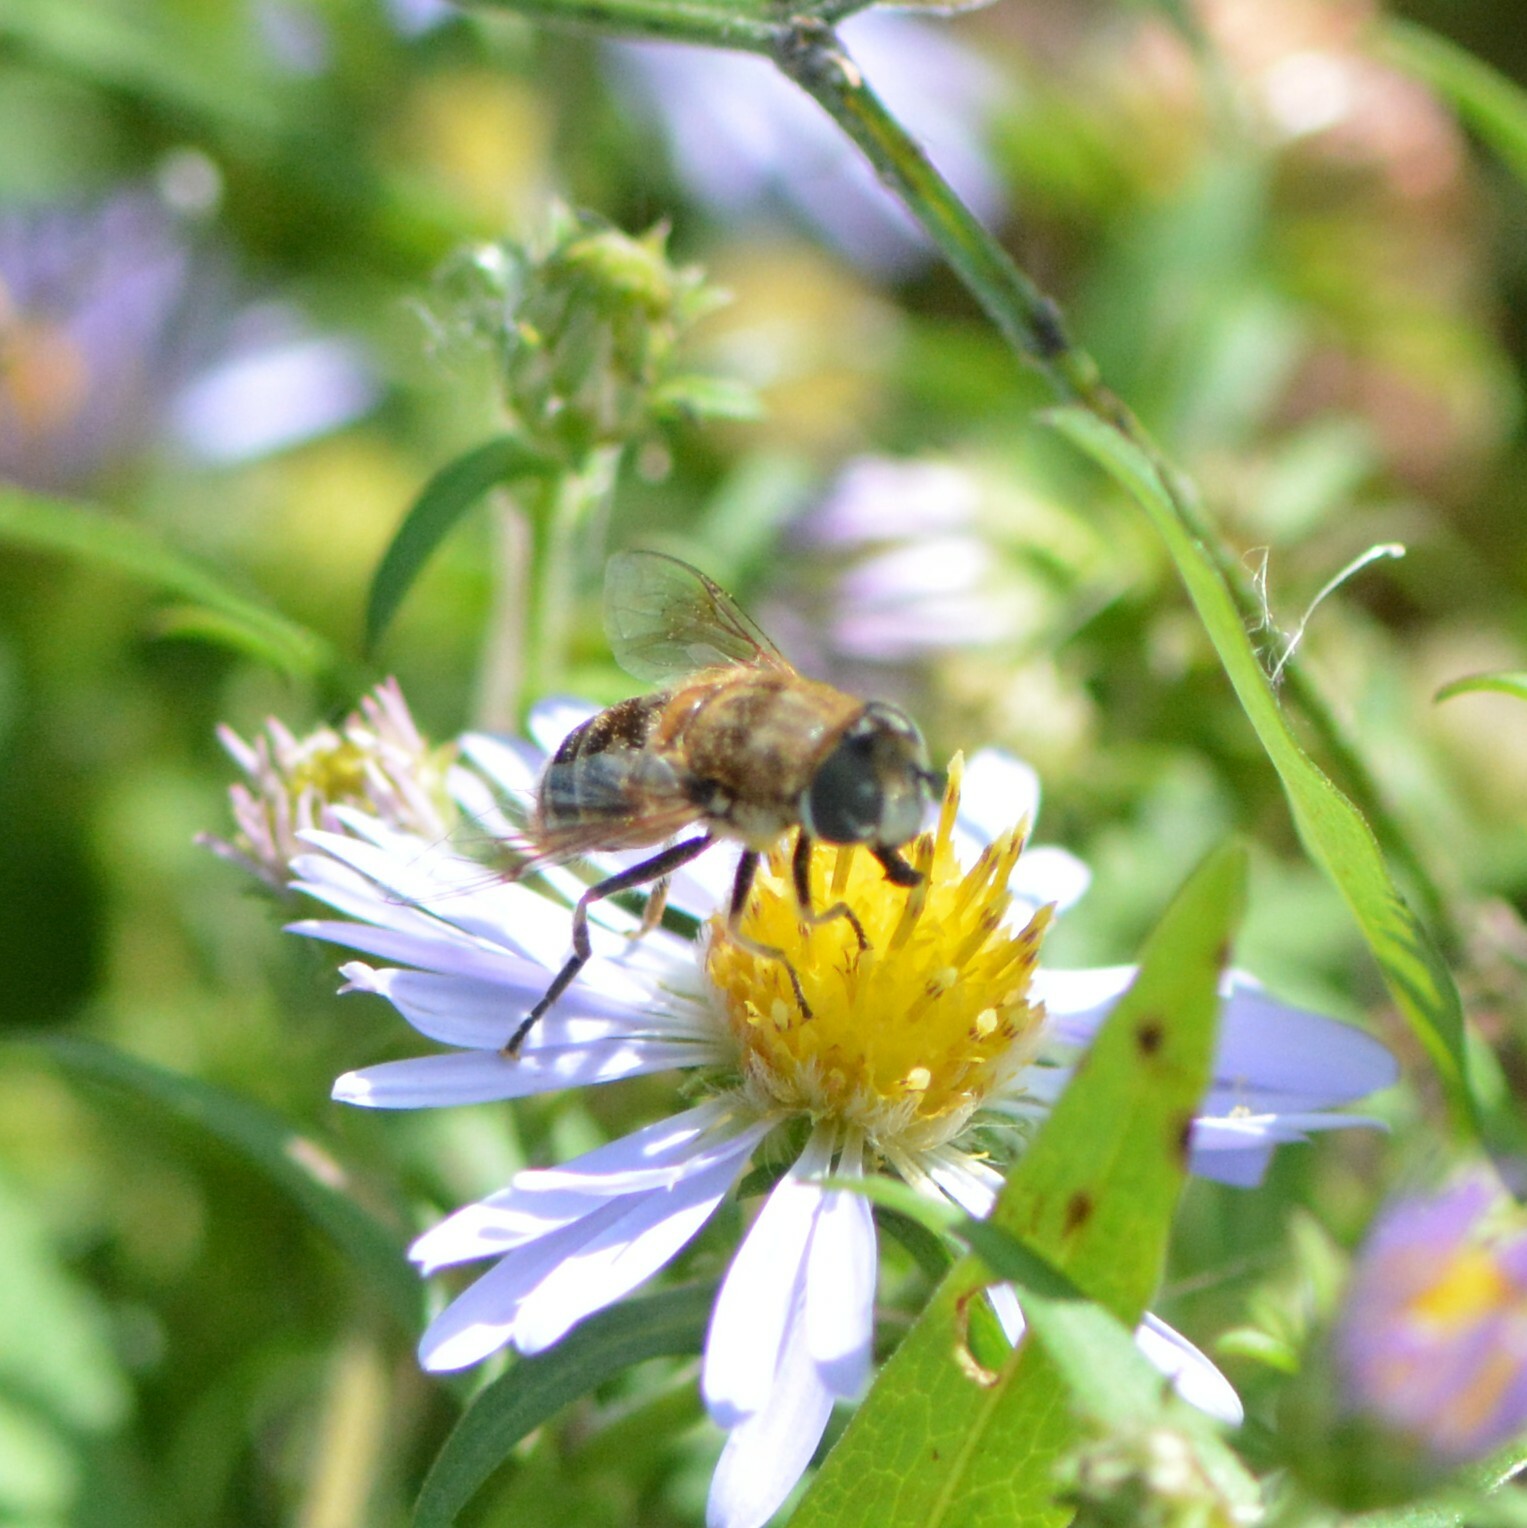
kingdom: Animalia
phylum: Arthropoda
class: Insecta
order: Diptera
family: Syrphidae
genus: Eristalis
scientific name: Eristalis arbustorum
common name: Hover fly
